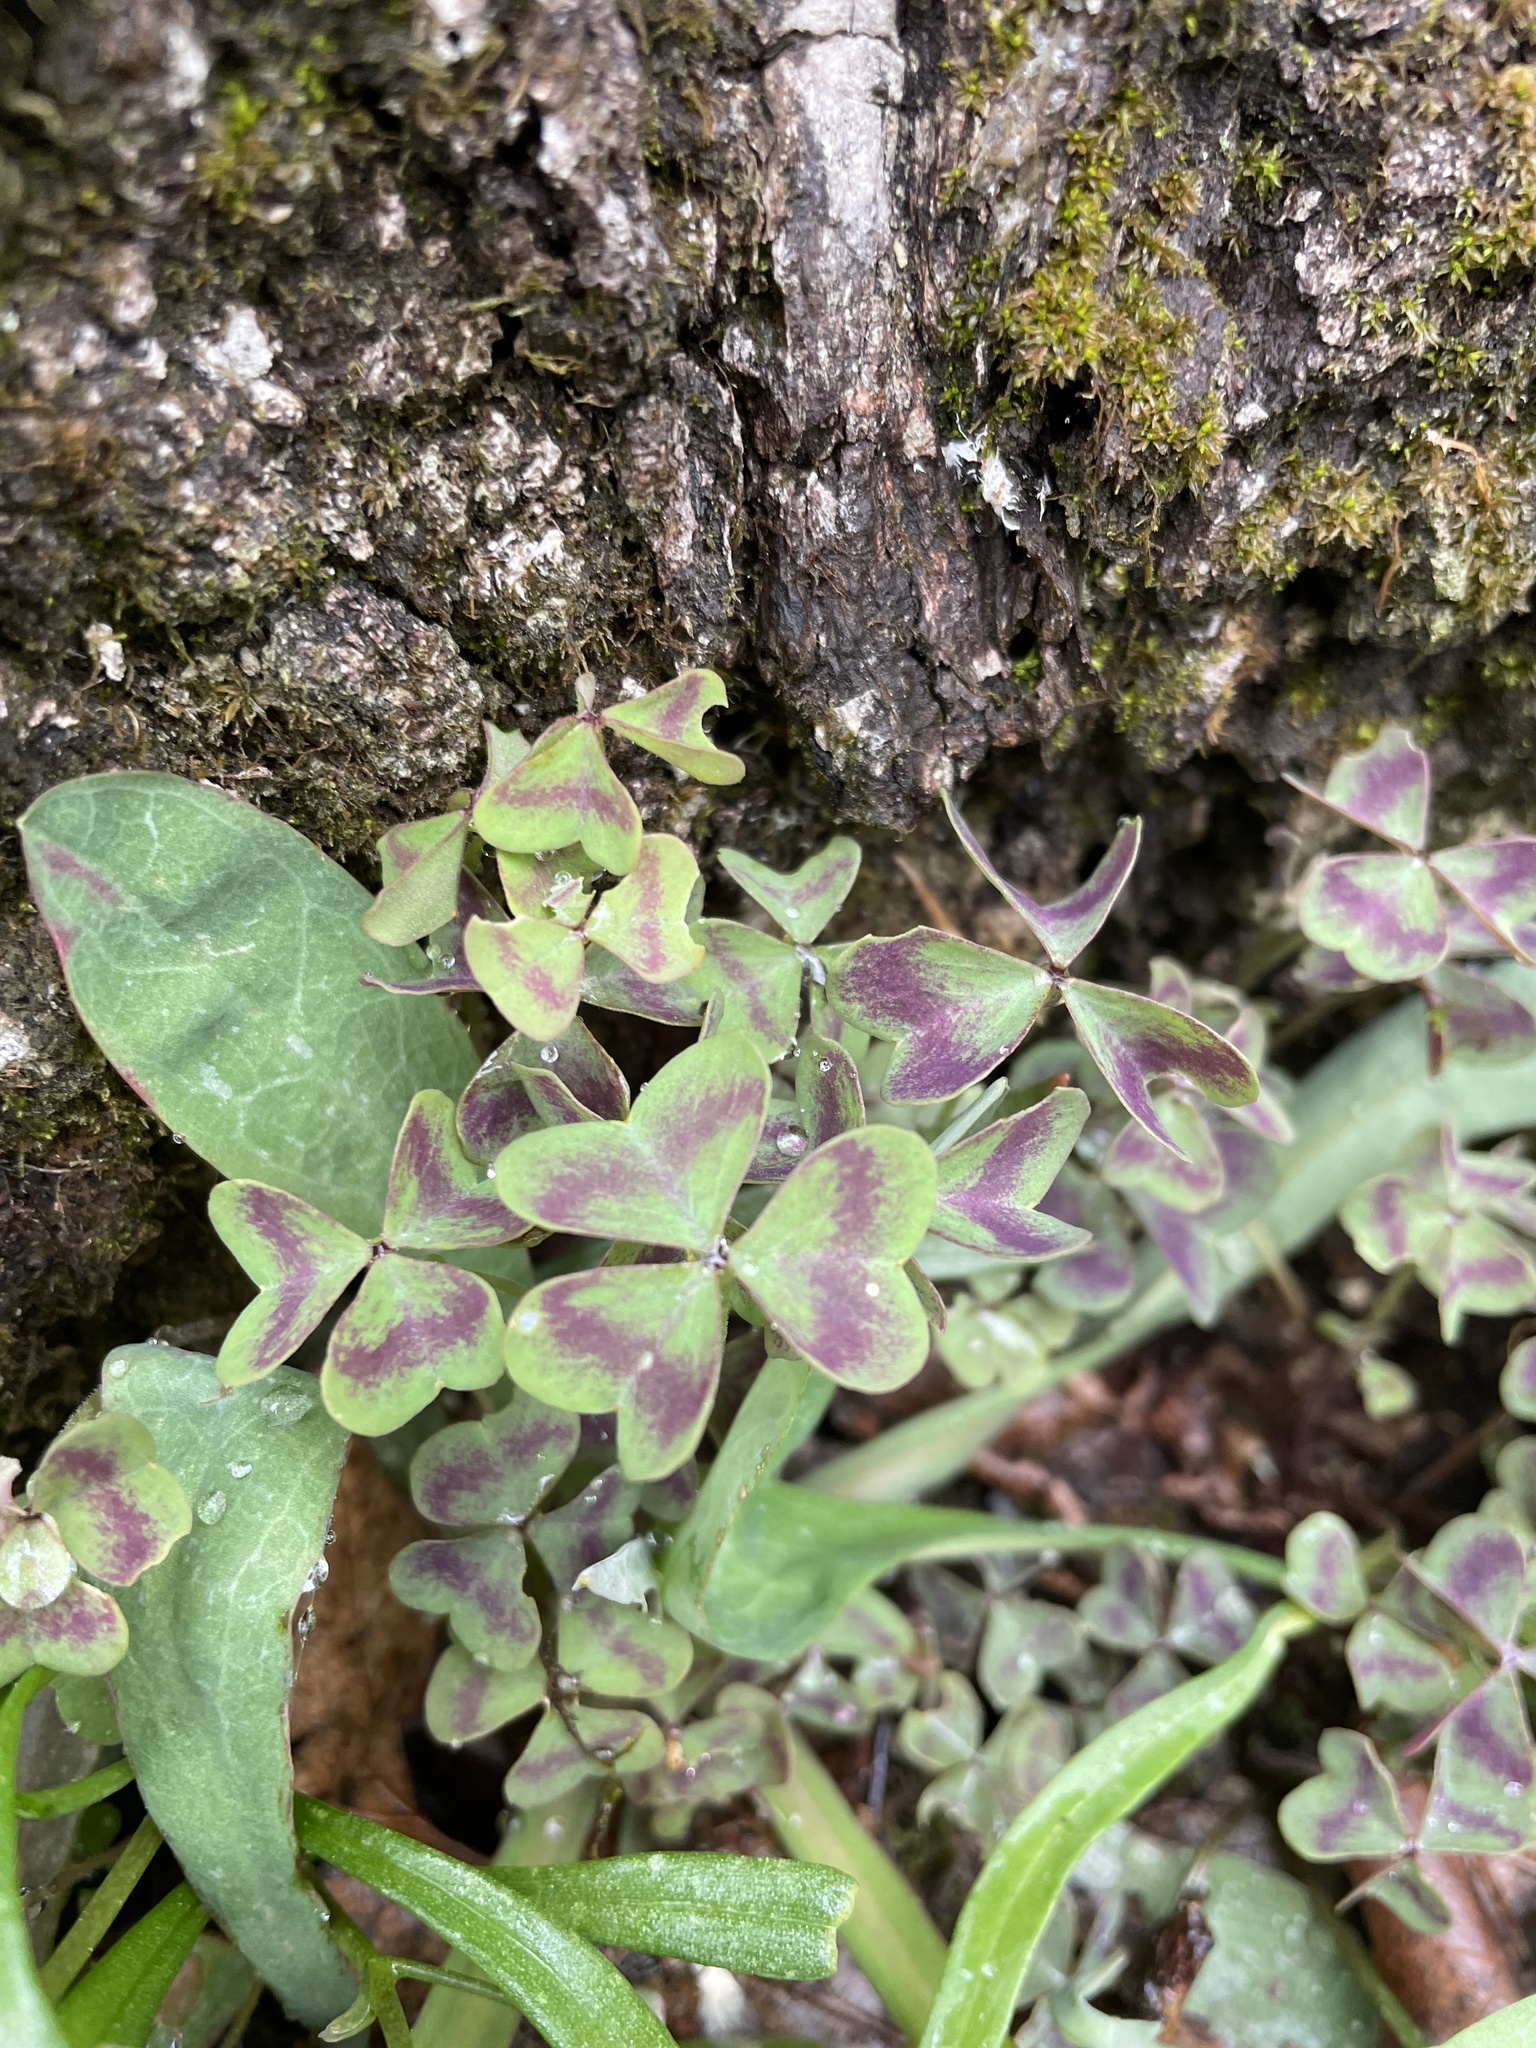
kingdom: Plantae
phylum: Tracheophyta
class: Magnoliopsida
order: Oxalidales
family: Oxalidaceae
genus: Oxalis
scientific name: Oxalis violacea
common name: Violet wood-sorrel
